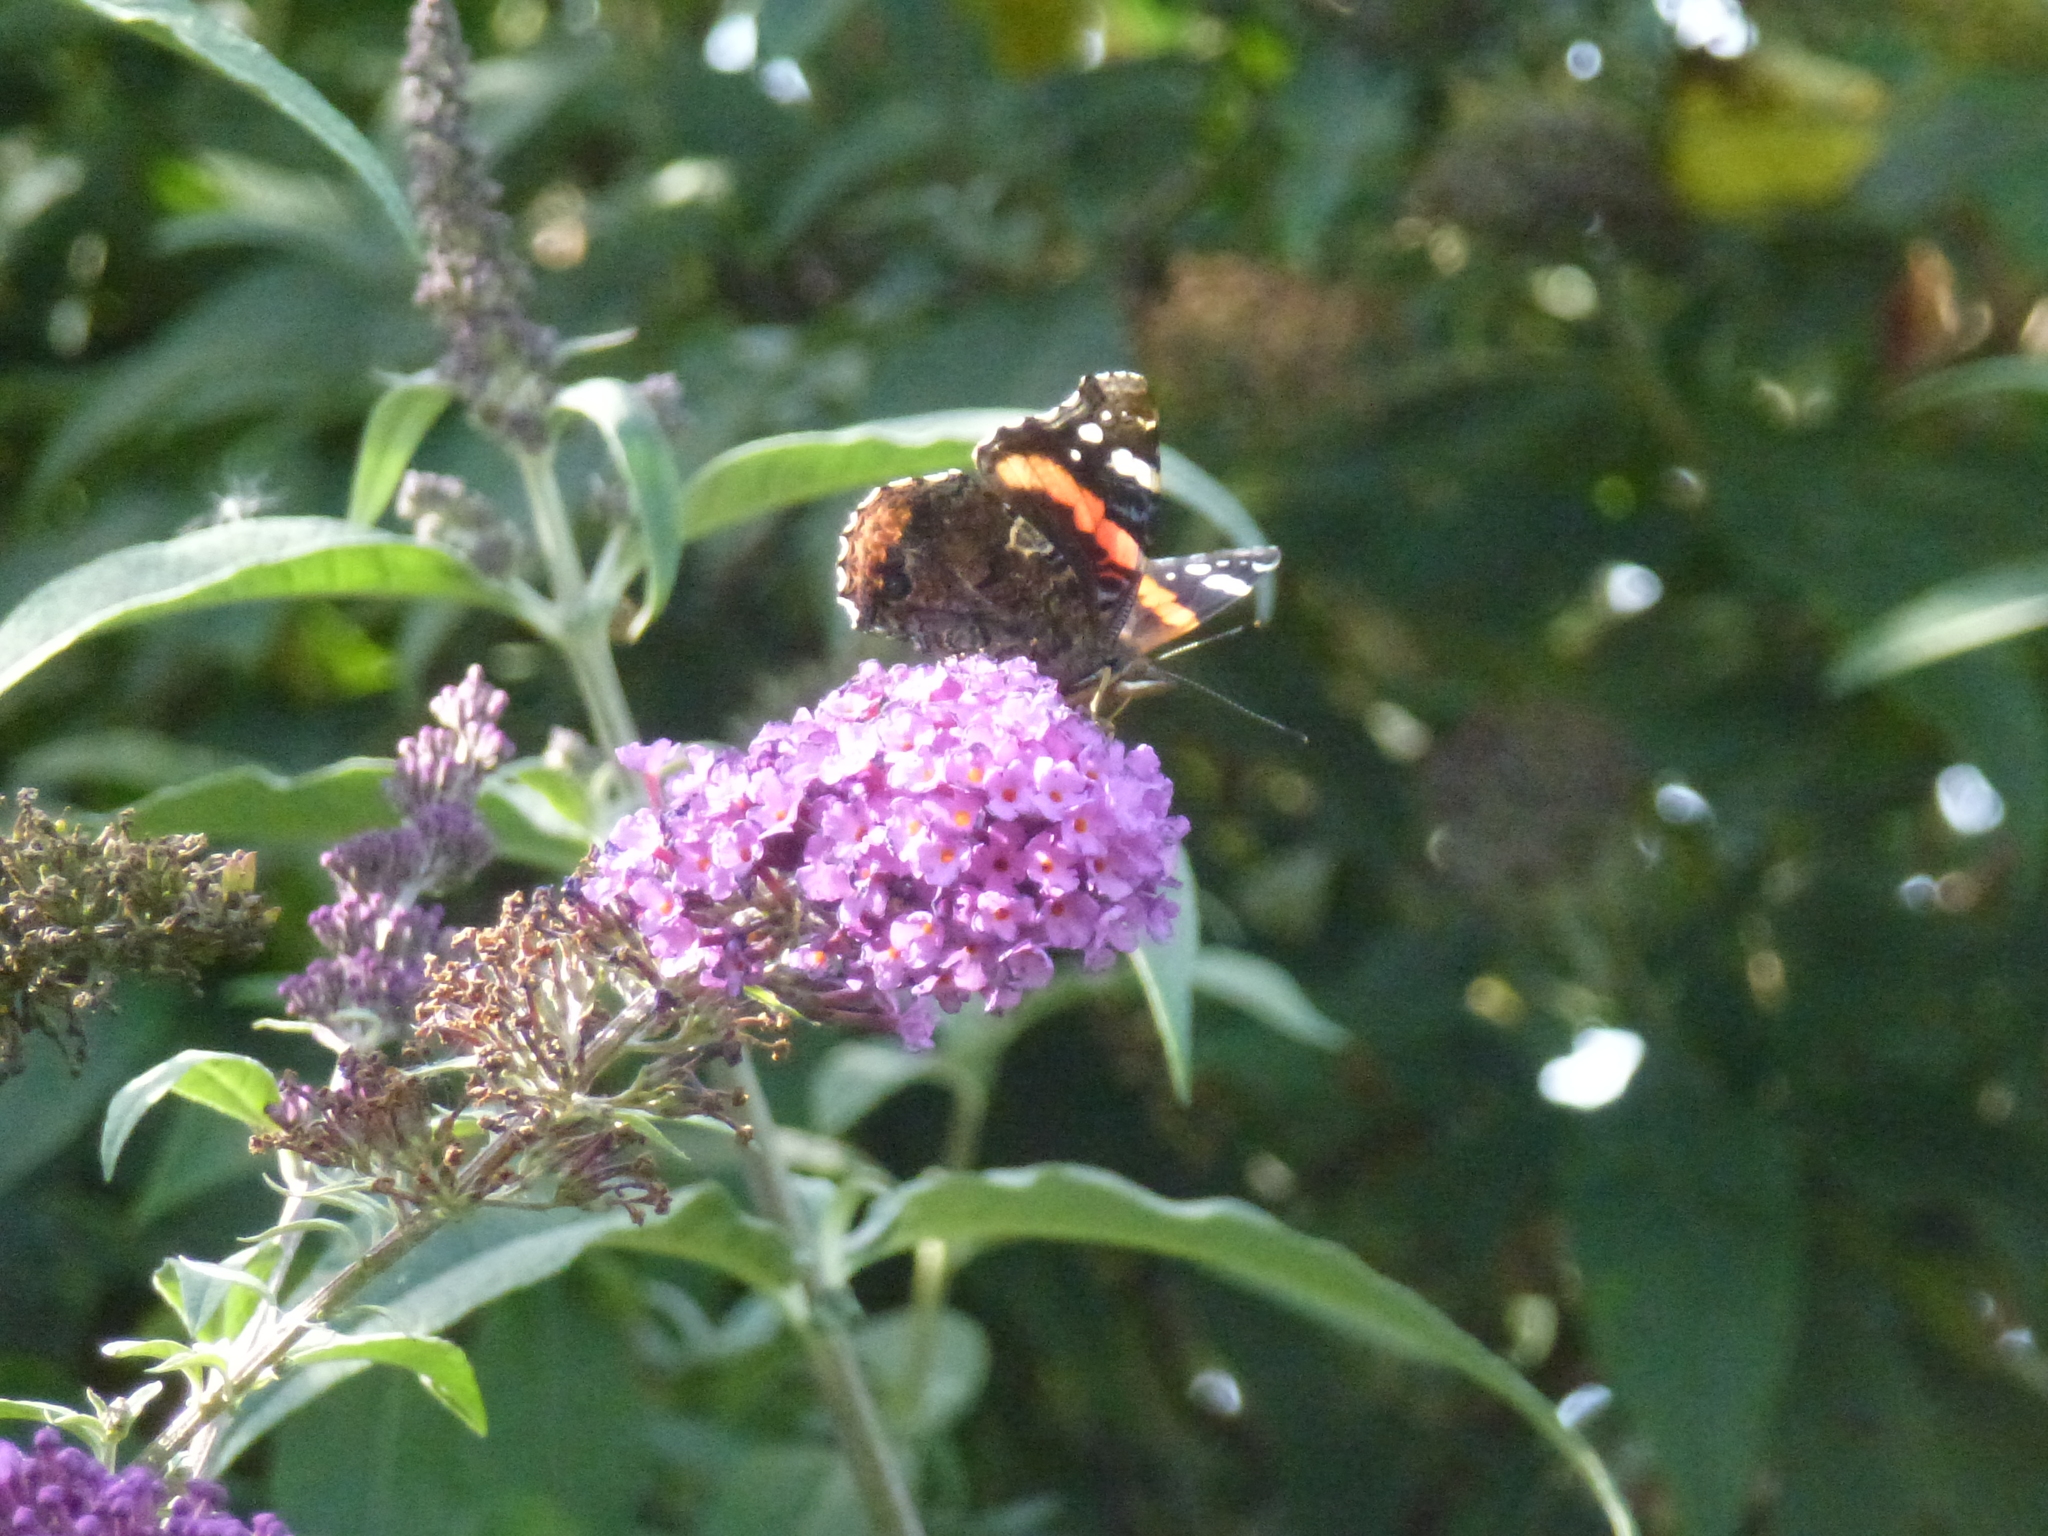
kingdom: Animalia
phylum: Arthropoda
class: Insecta
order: Lepidoptera
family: Nymphalidae
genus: Vanessa
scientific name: Vanessa atalanta
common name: Red admiral
